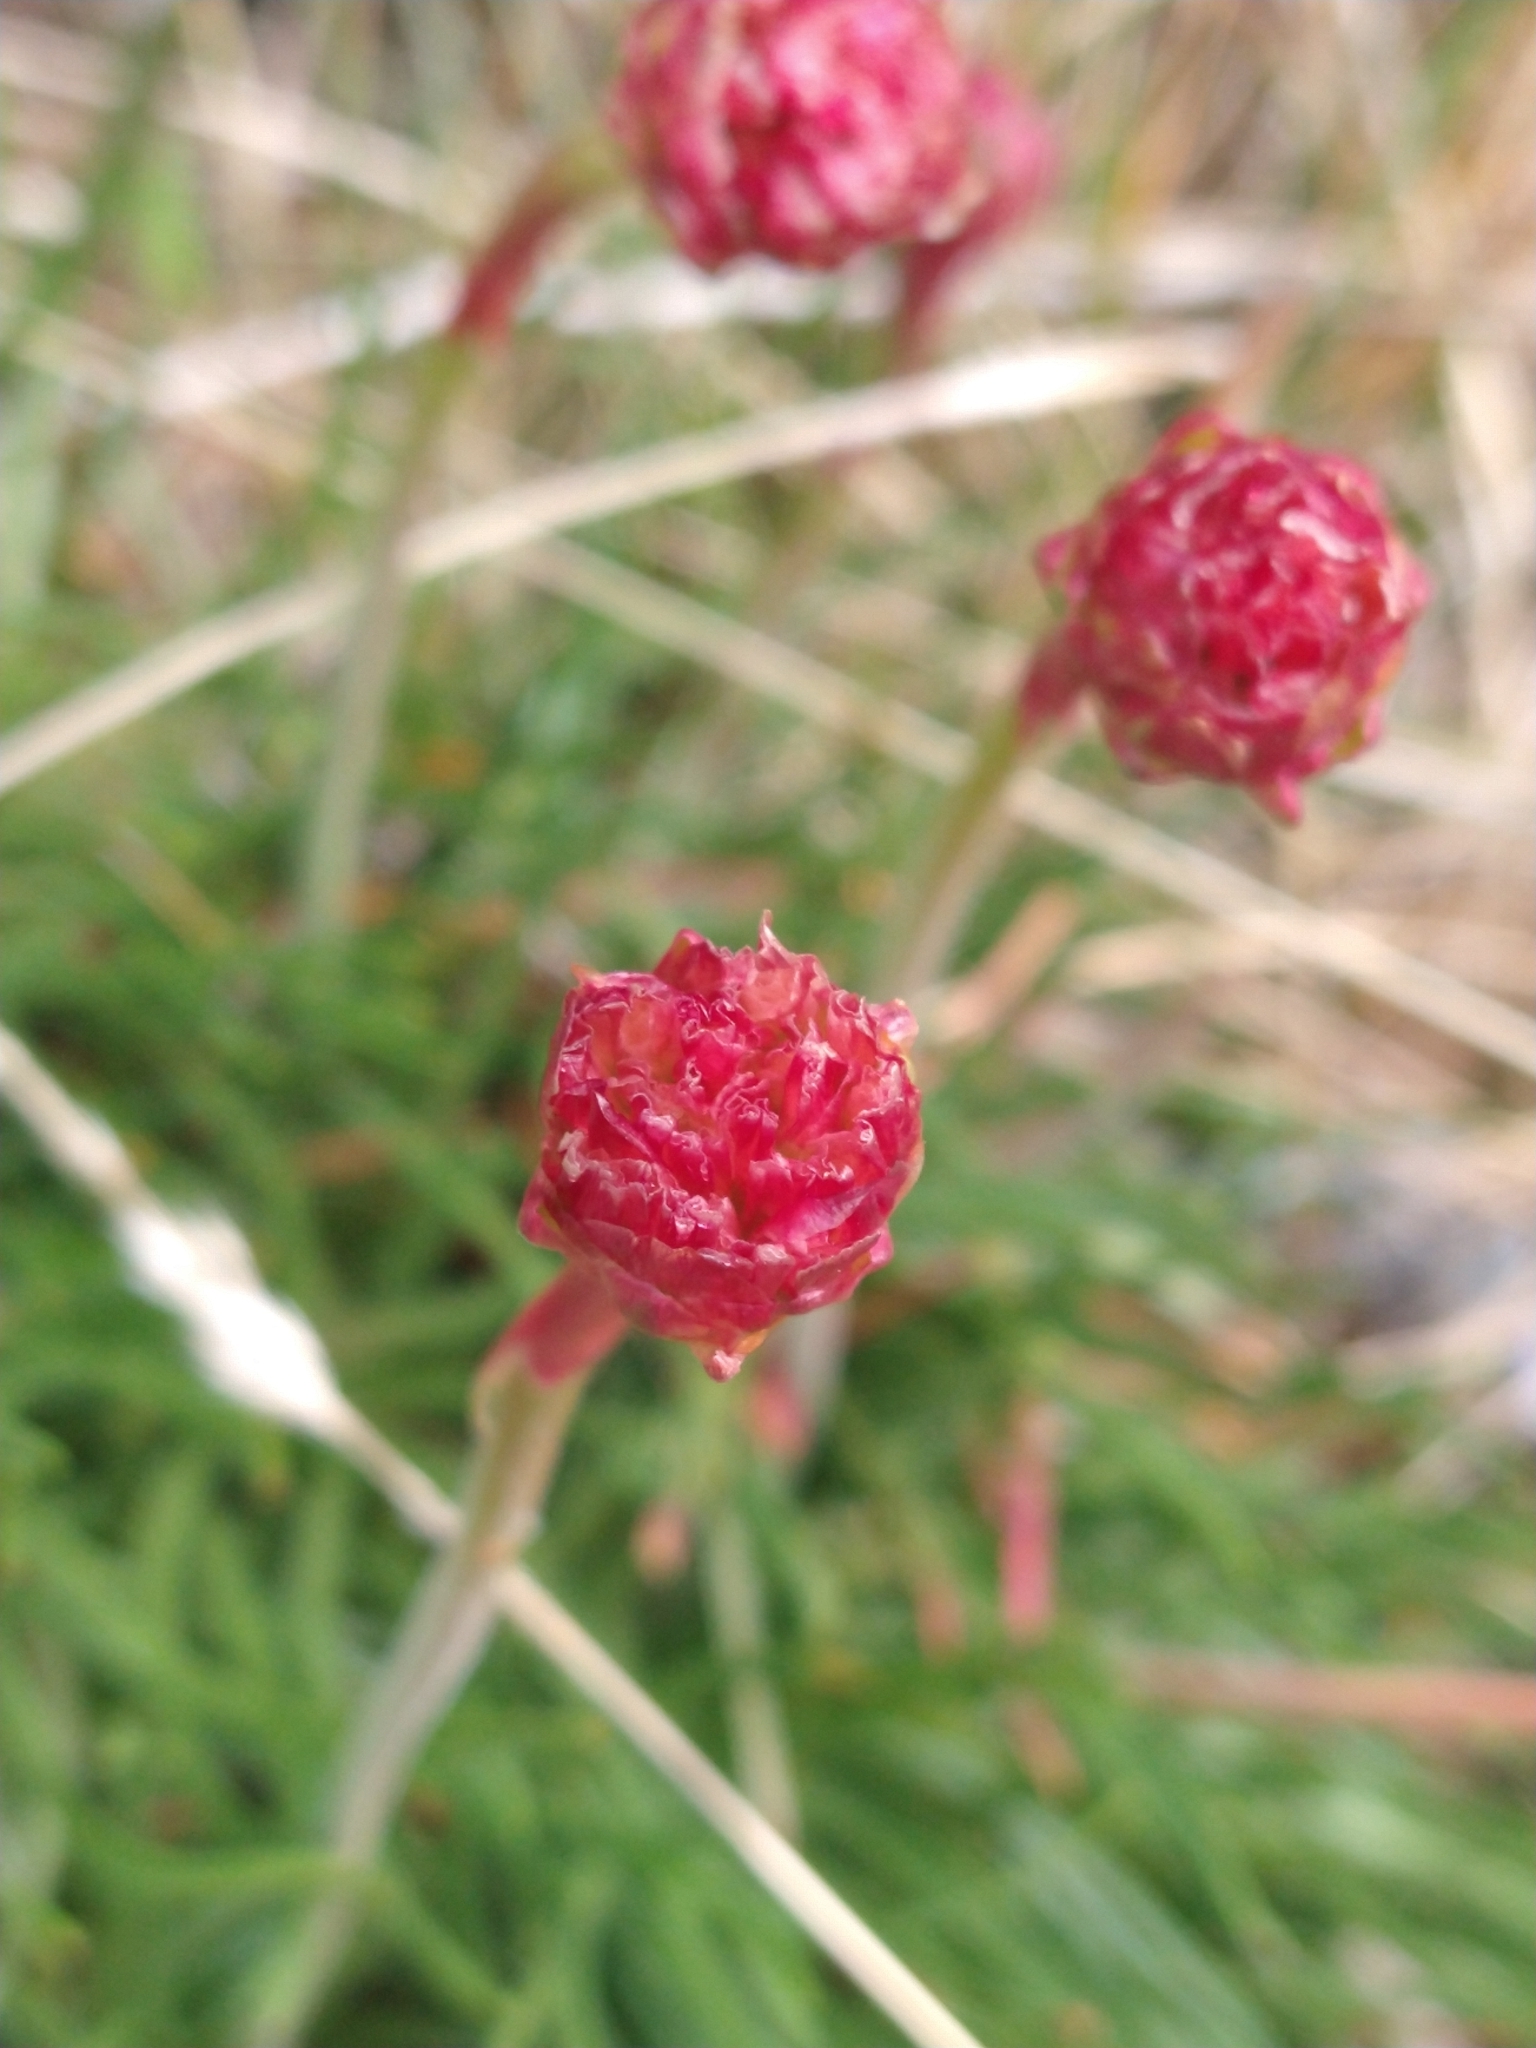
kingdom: Plantae
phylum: Tracheophyta
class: Magnoliopsida
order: Caryophyllales
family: Plumbaginaceae
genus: Armeria
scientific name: Armeria curvifolia
